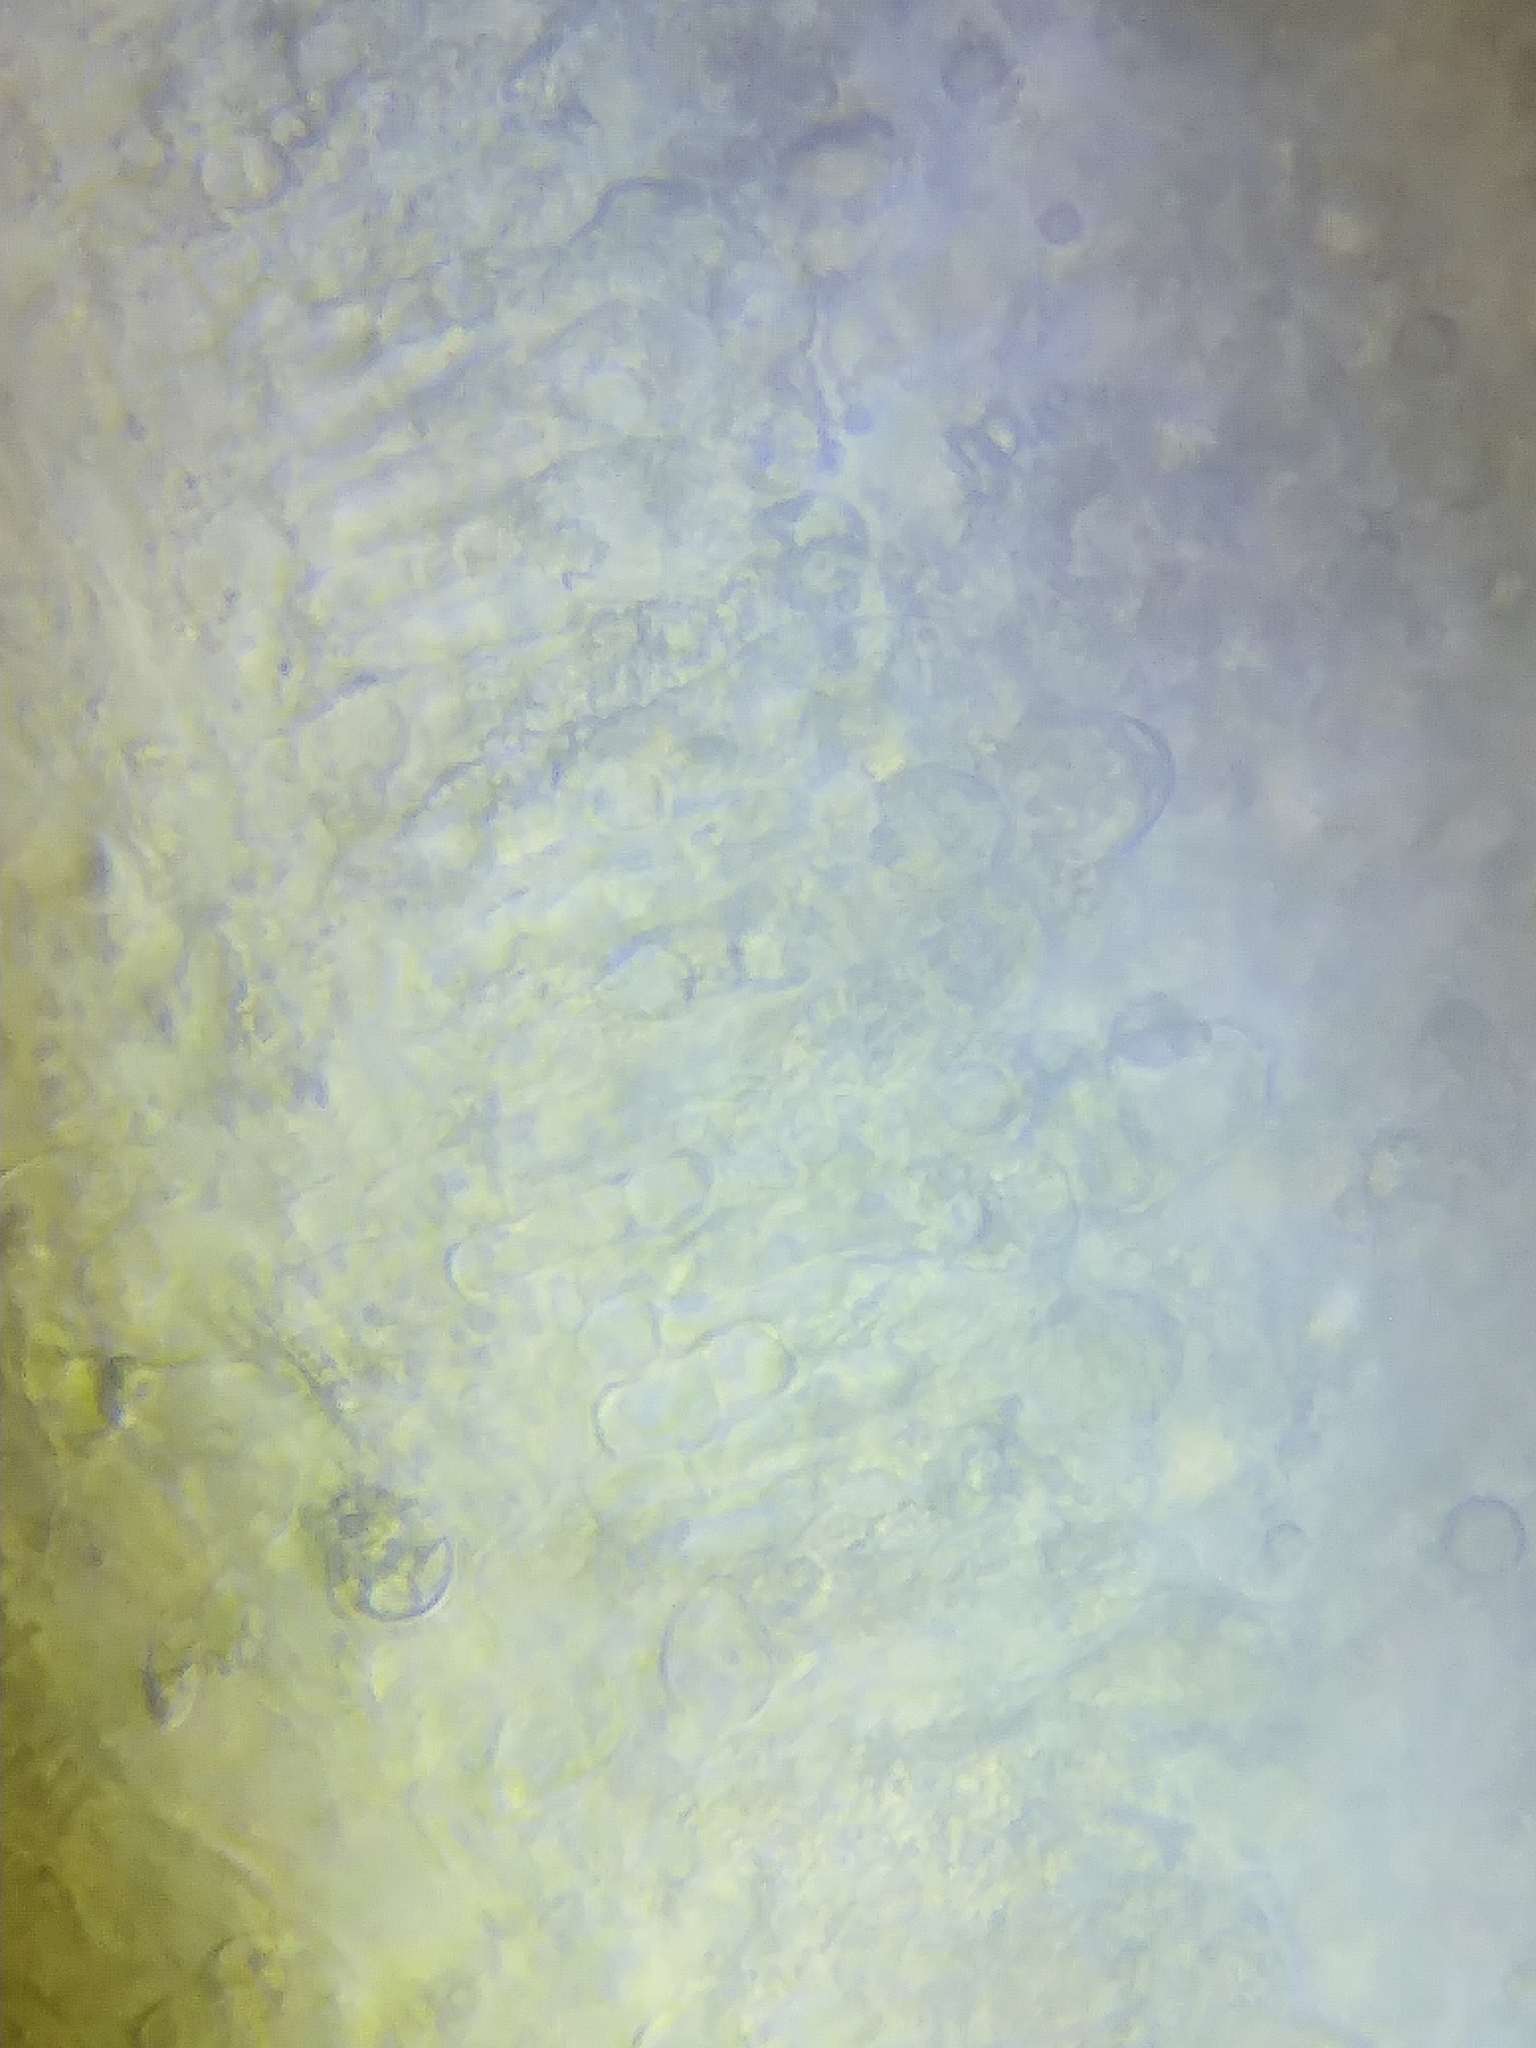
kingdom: Fungi
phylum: Basidiomycota
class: Agaricomycetes
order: Agaricales
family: Amanitaceae
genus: Amanita
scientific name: Amanita multisquamosa
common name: Small funnel-veil amanita
